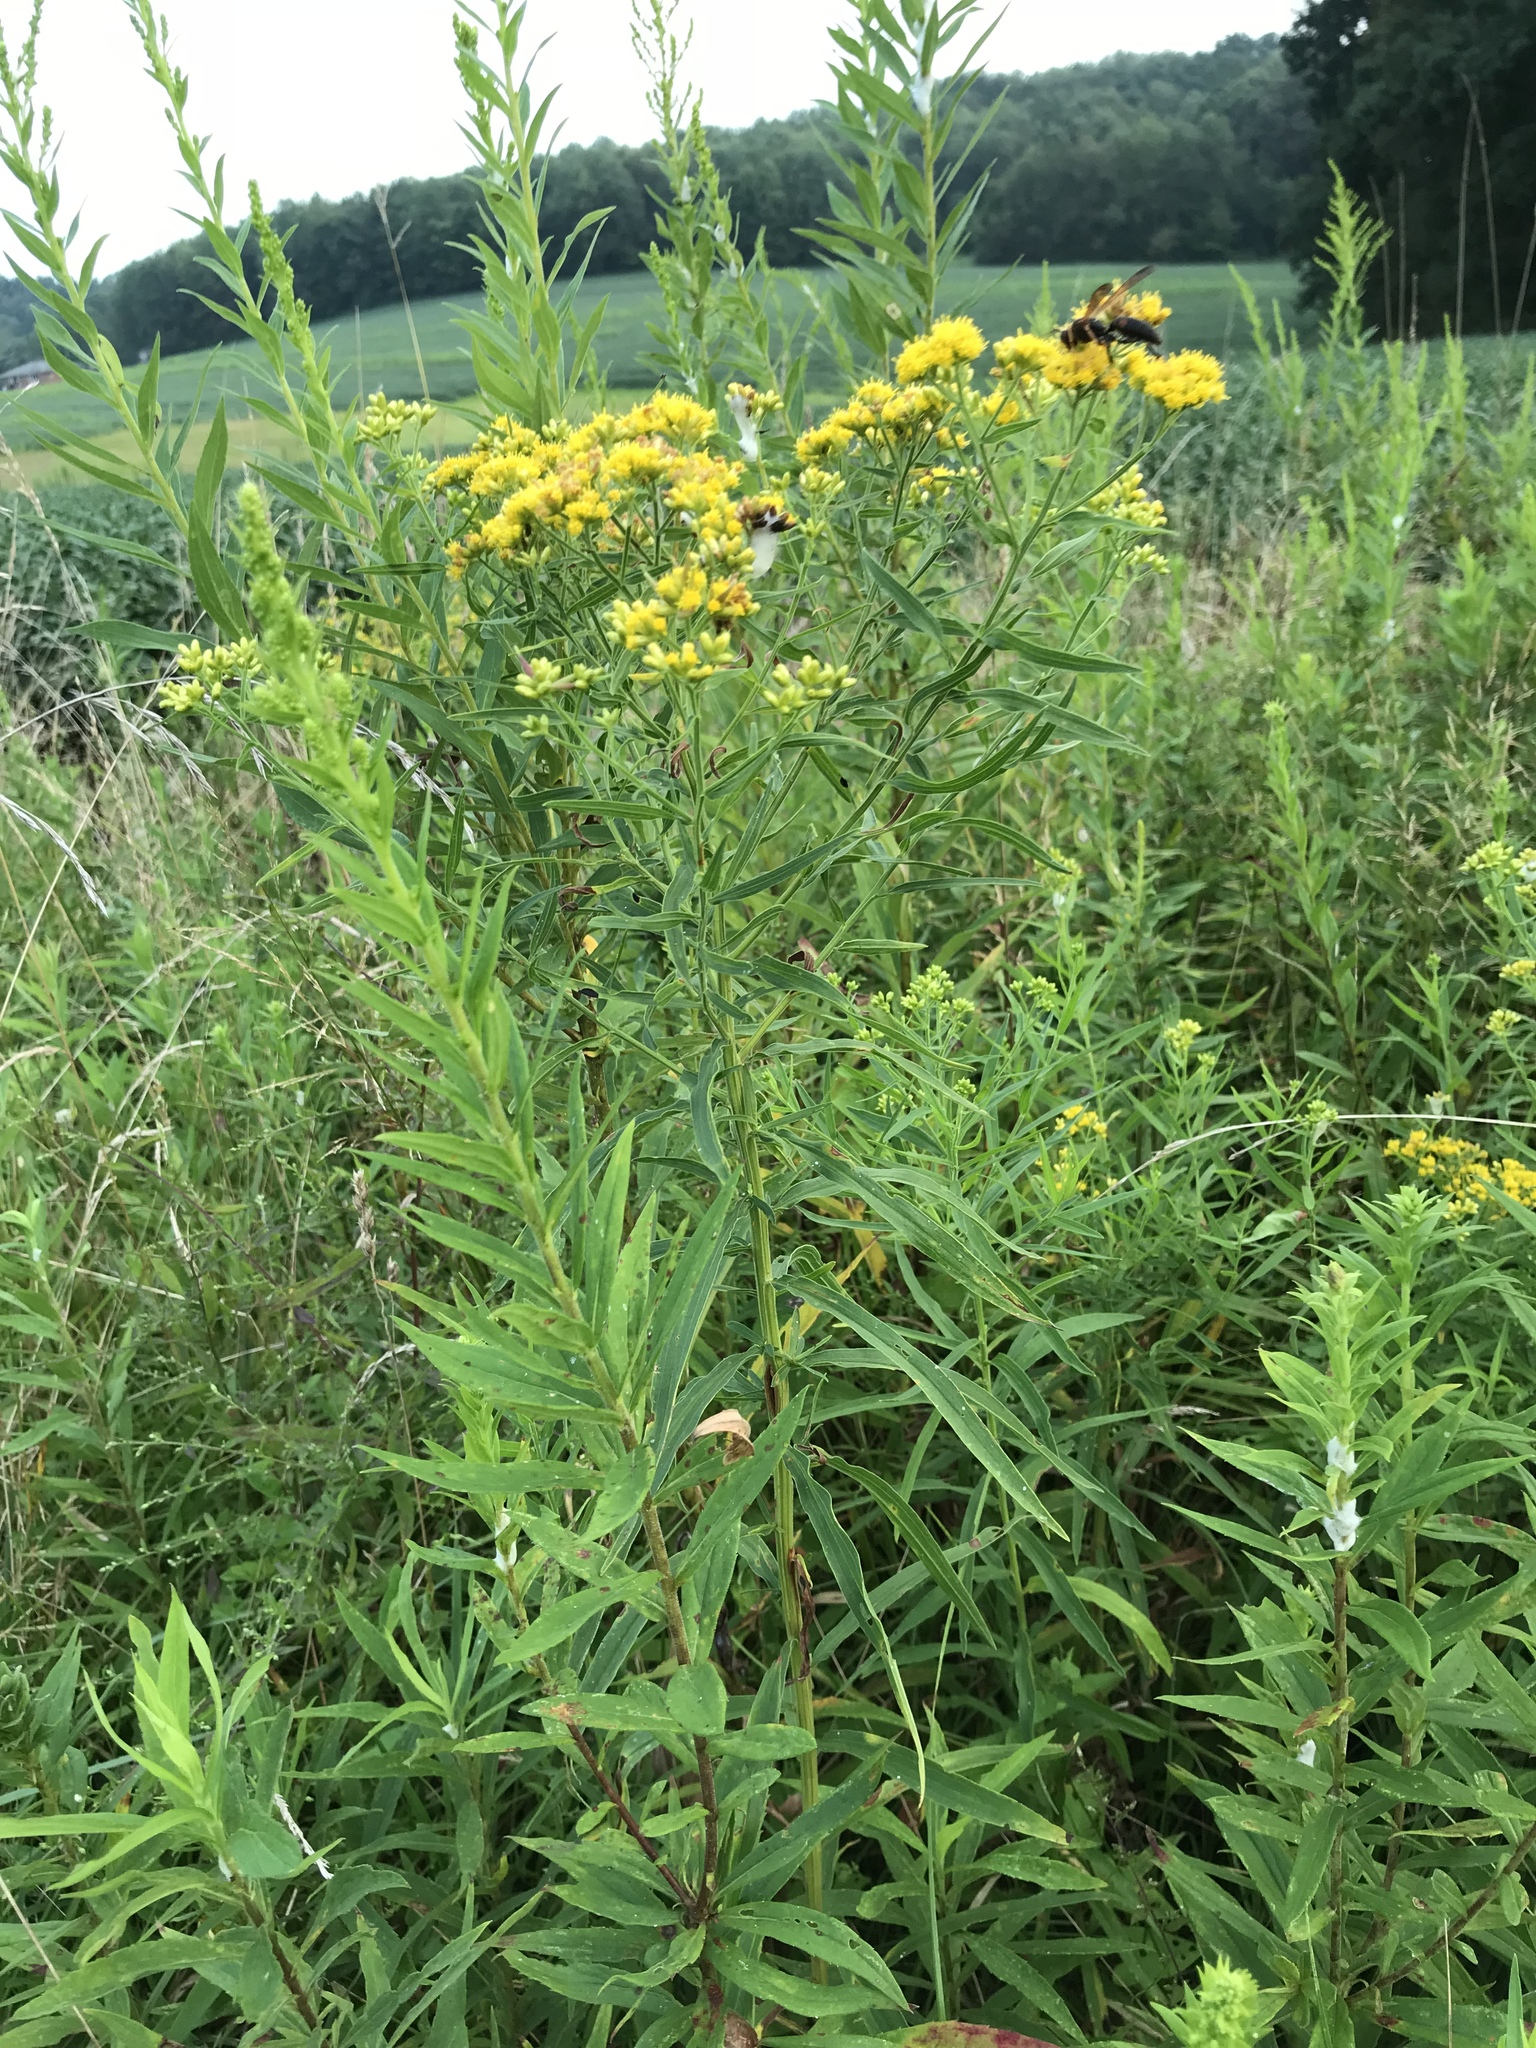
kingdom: Plantae
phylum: Tracheophyta
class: Magnoliopsida
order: Asterales
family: Asteraceae
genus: Euthamia
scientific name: Euthamia graminifolia
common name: Common goldentop
